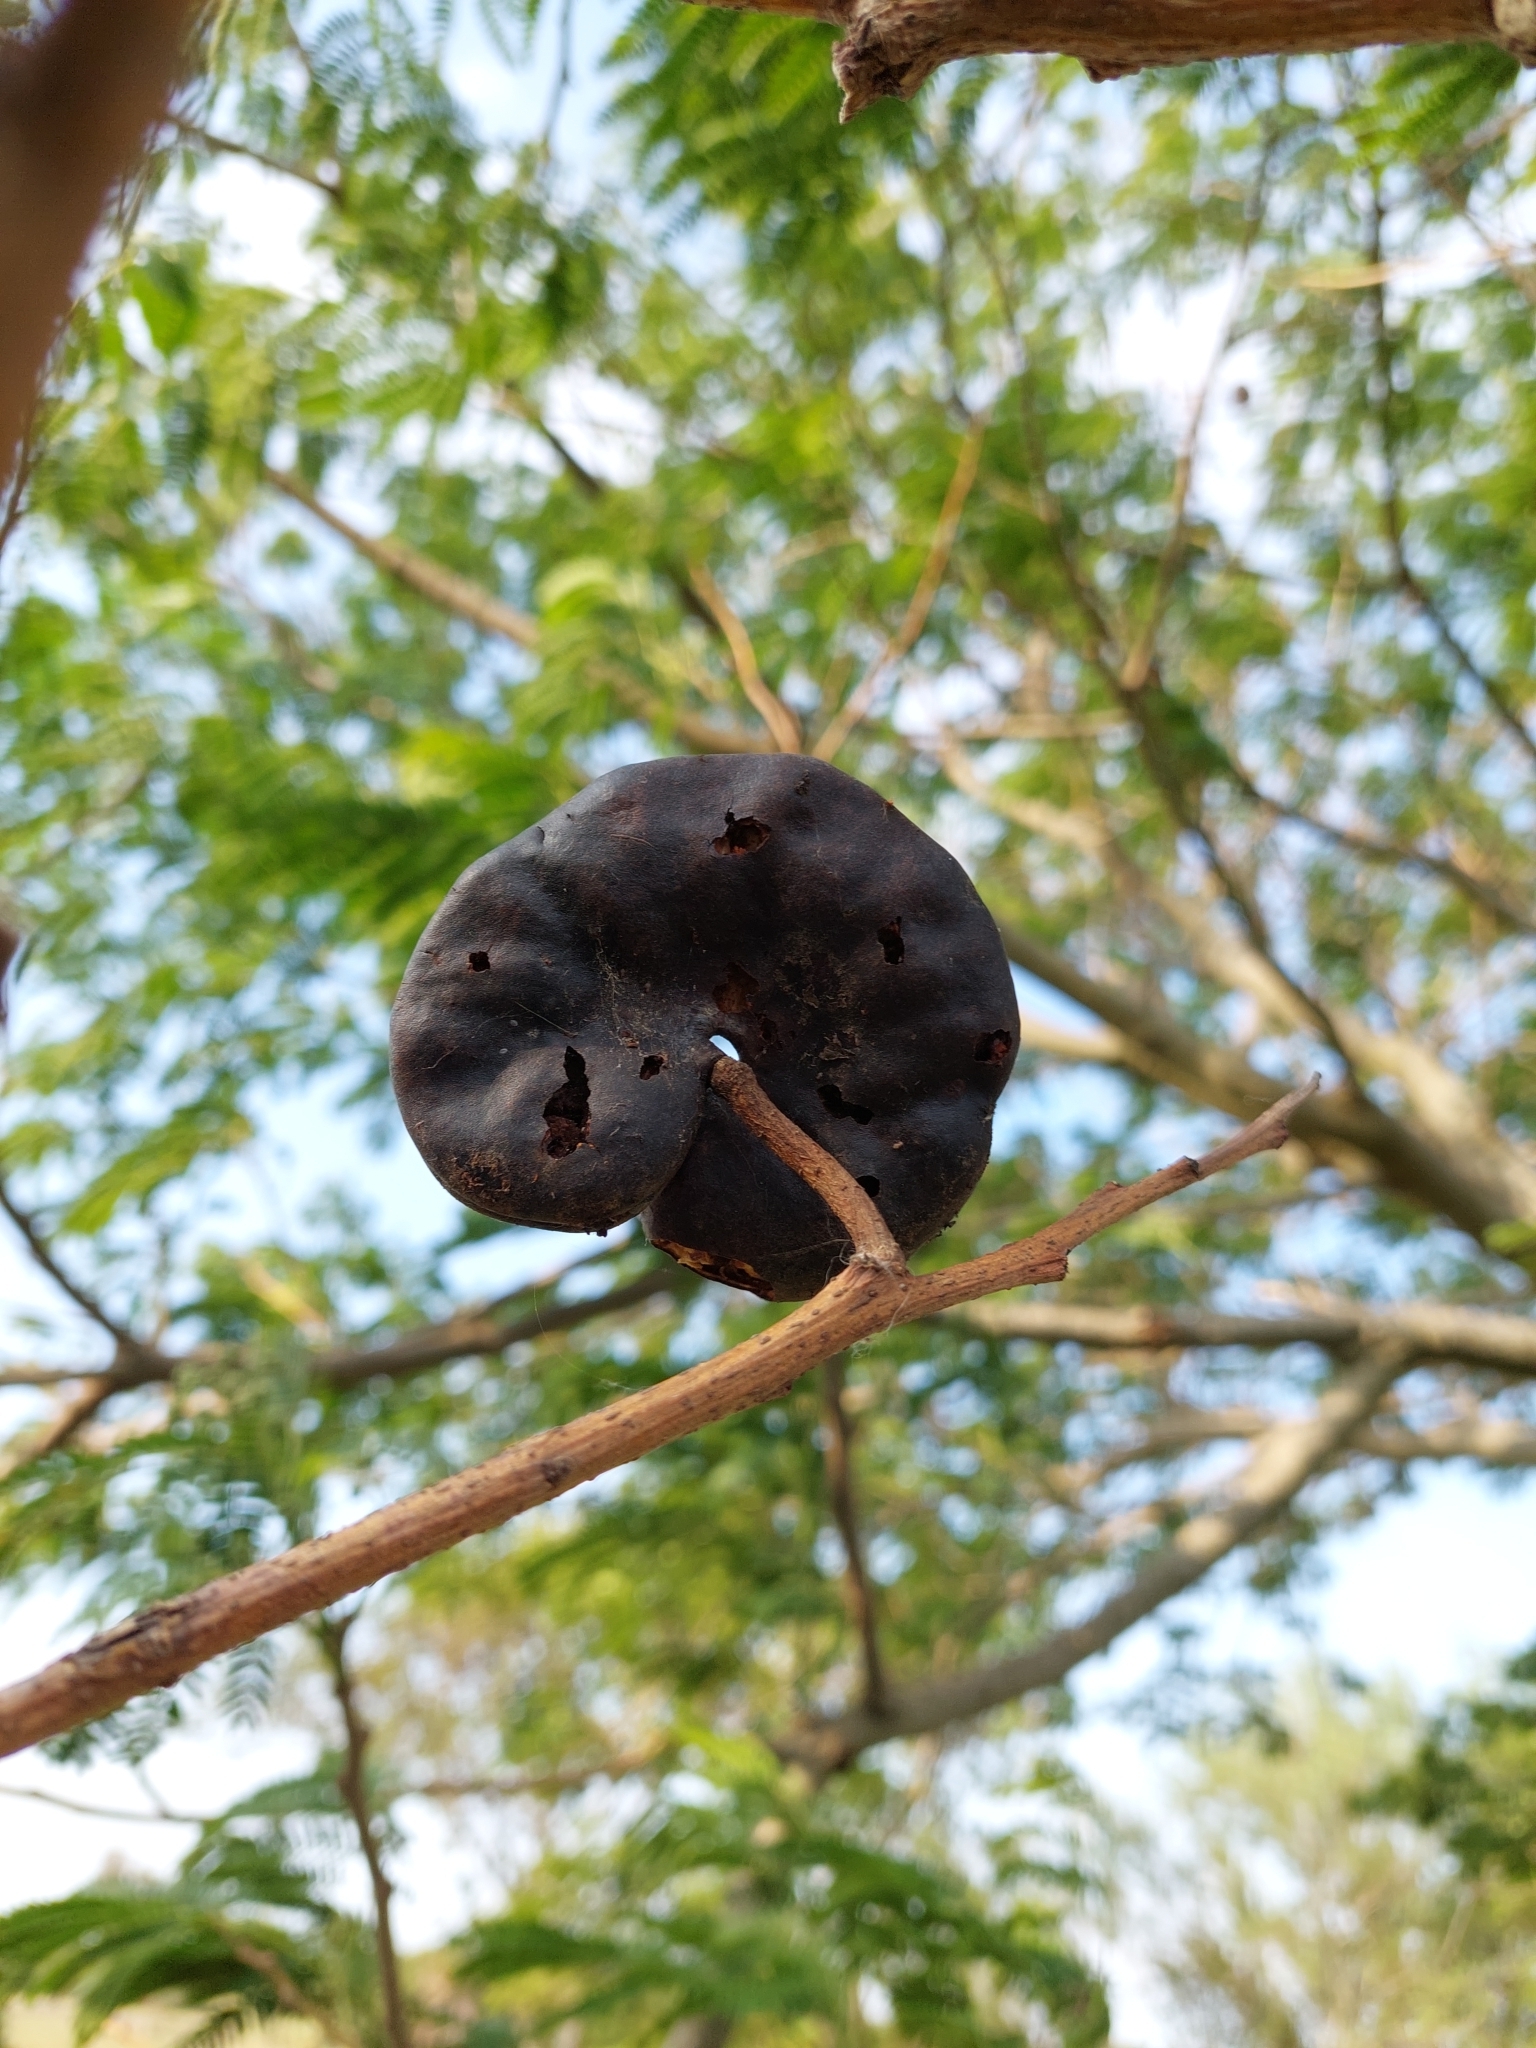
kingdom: Plantae
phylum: Tracheophyta
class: Magnoliopsida
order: Fabales
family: Fabaceae
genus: Enterolobium
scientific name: Enterolobium contortisiliquum
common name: Pacara earpod tree
